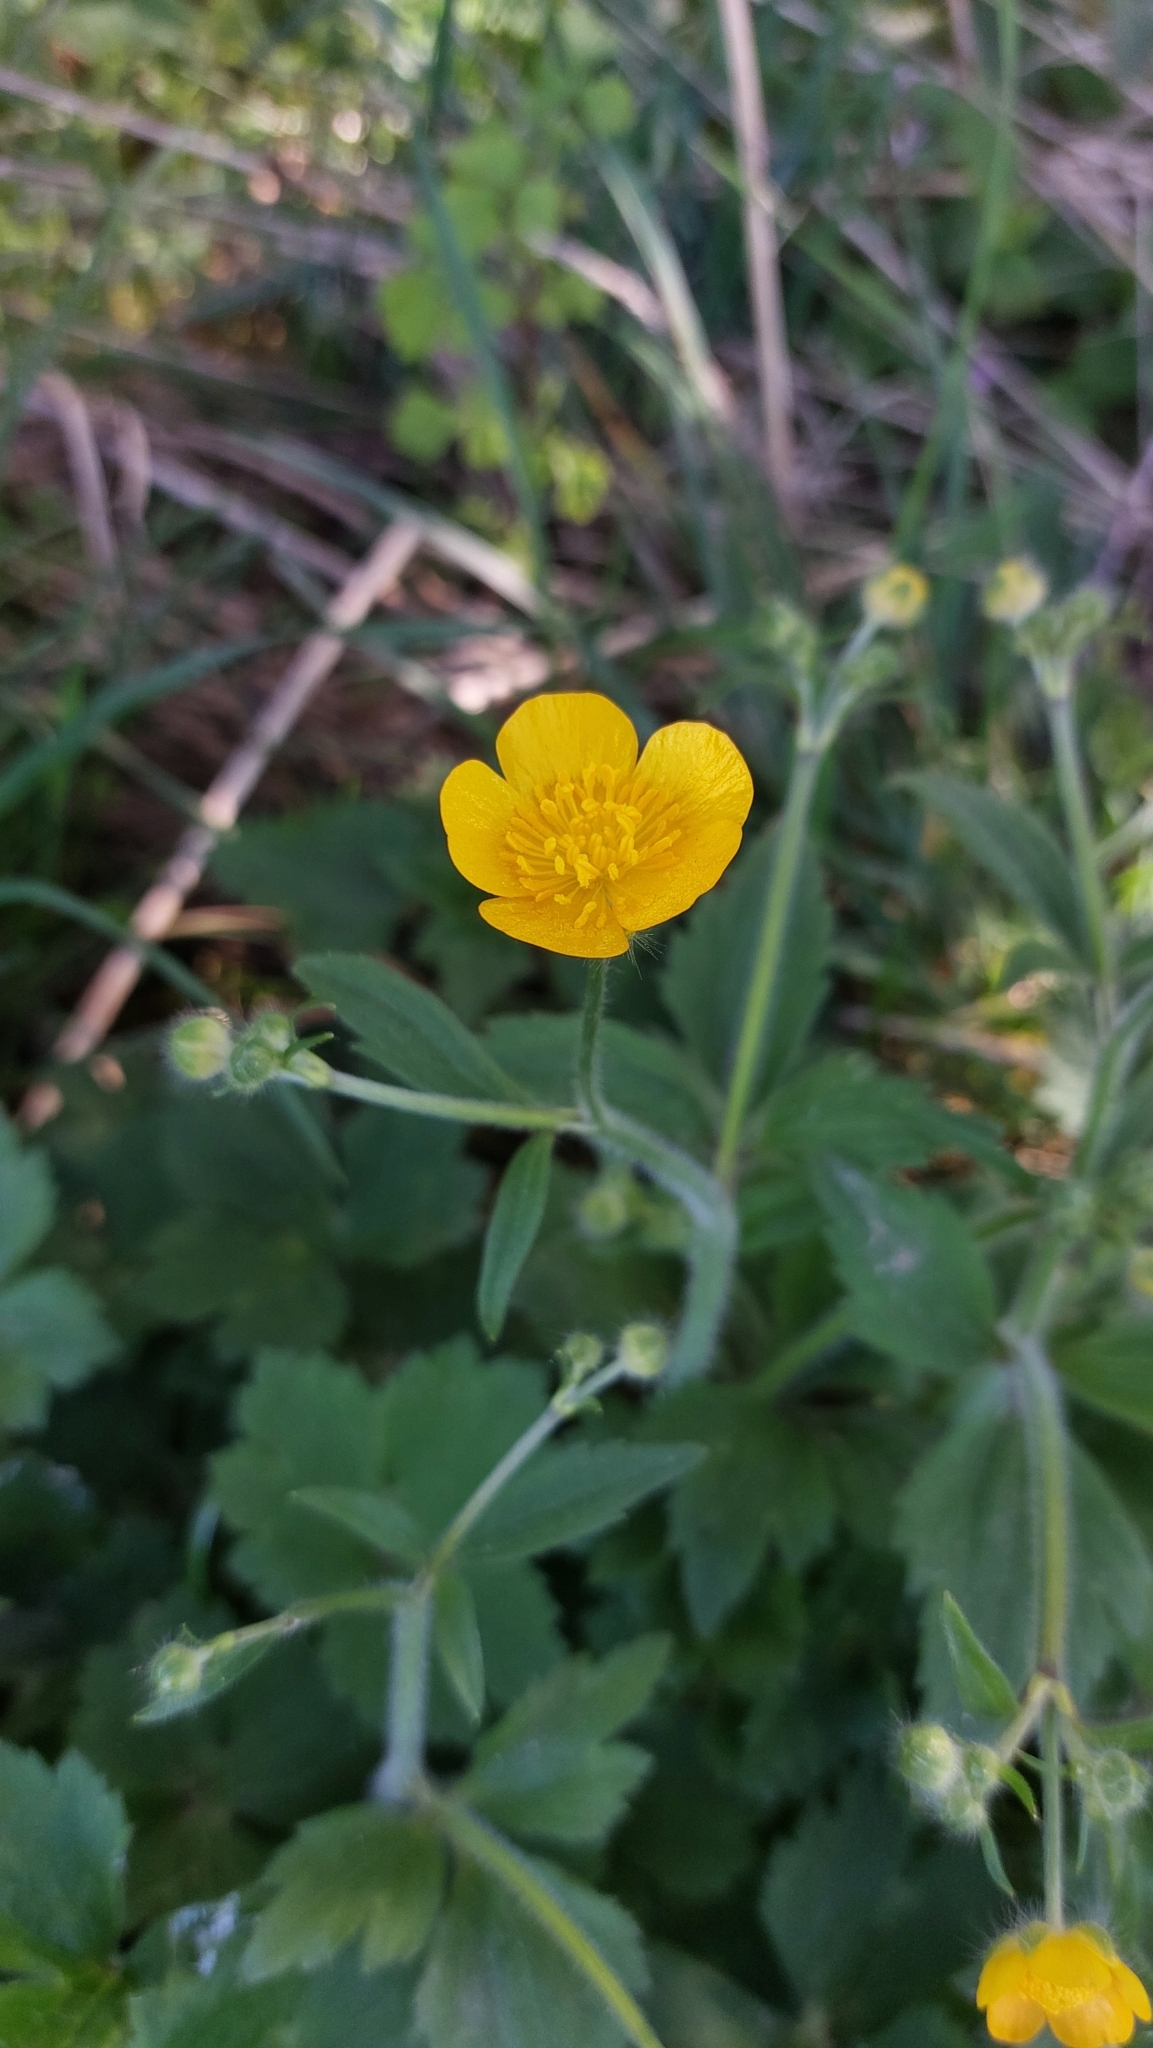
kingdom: Plantae
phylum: Tracheophyta
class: Magnoliopsida
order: Ranunculales
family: Ranunculaceae
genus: Ranunculus
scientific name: Ranunculus lanuginosus
